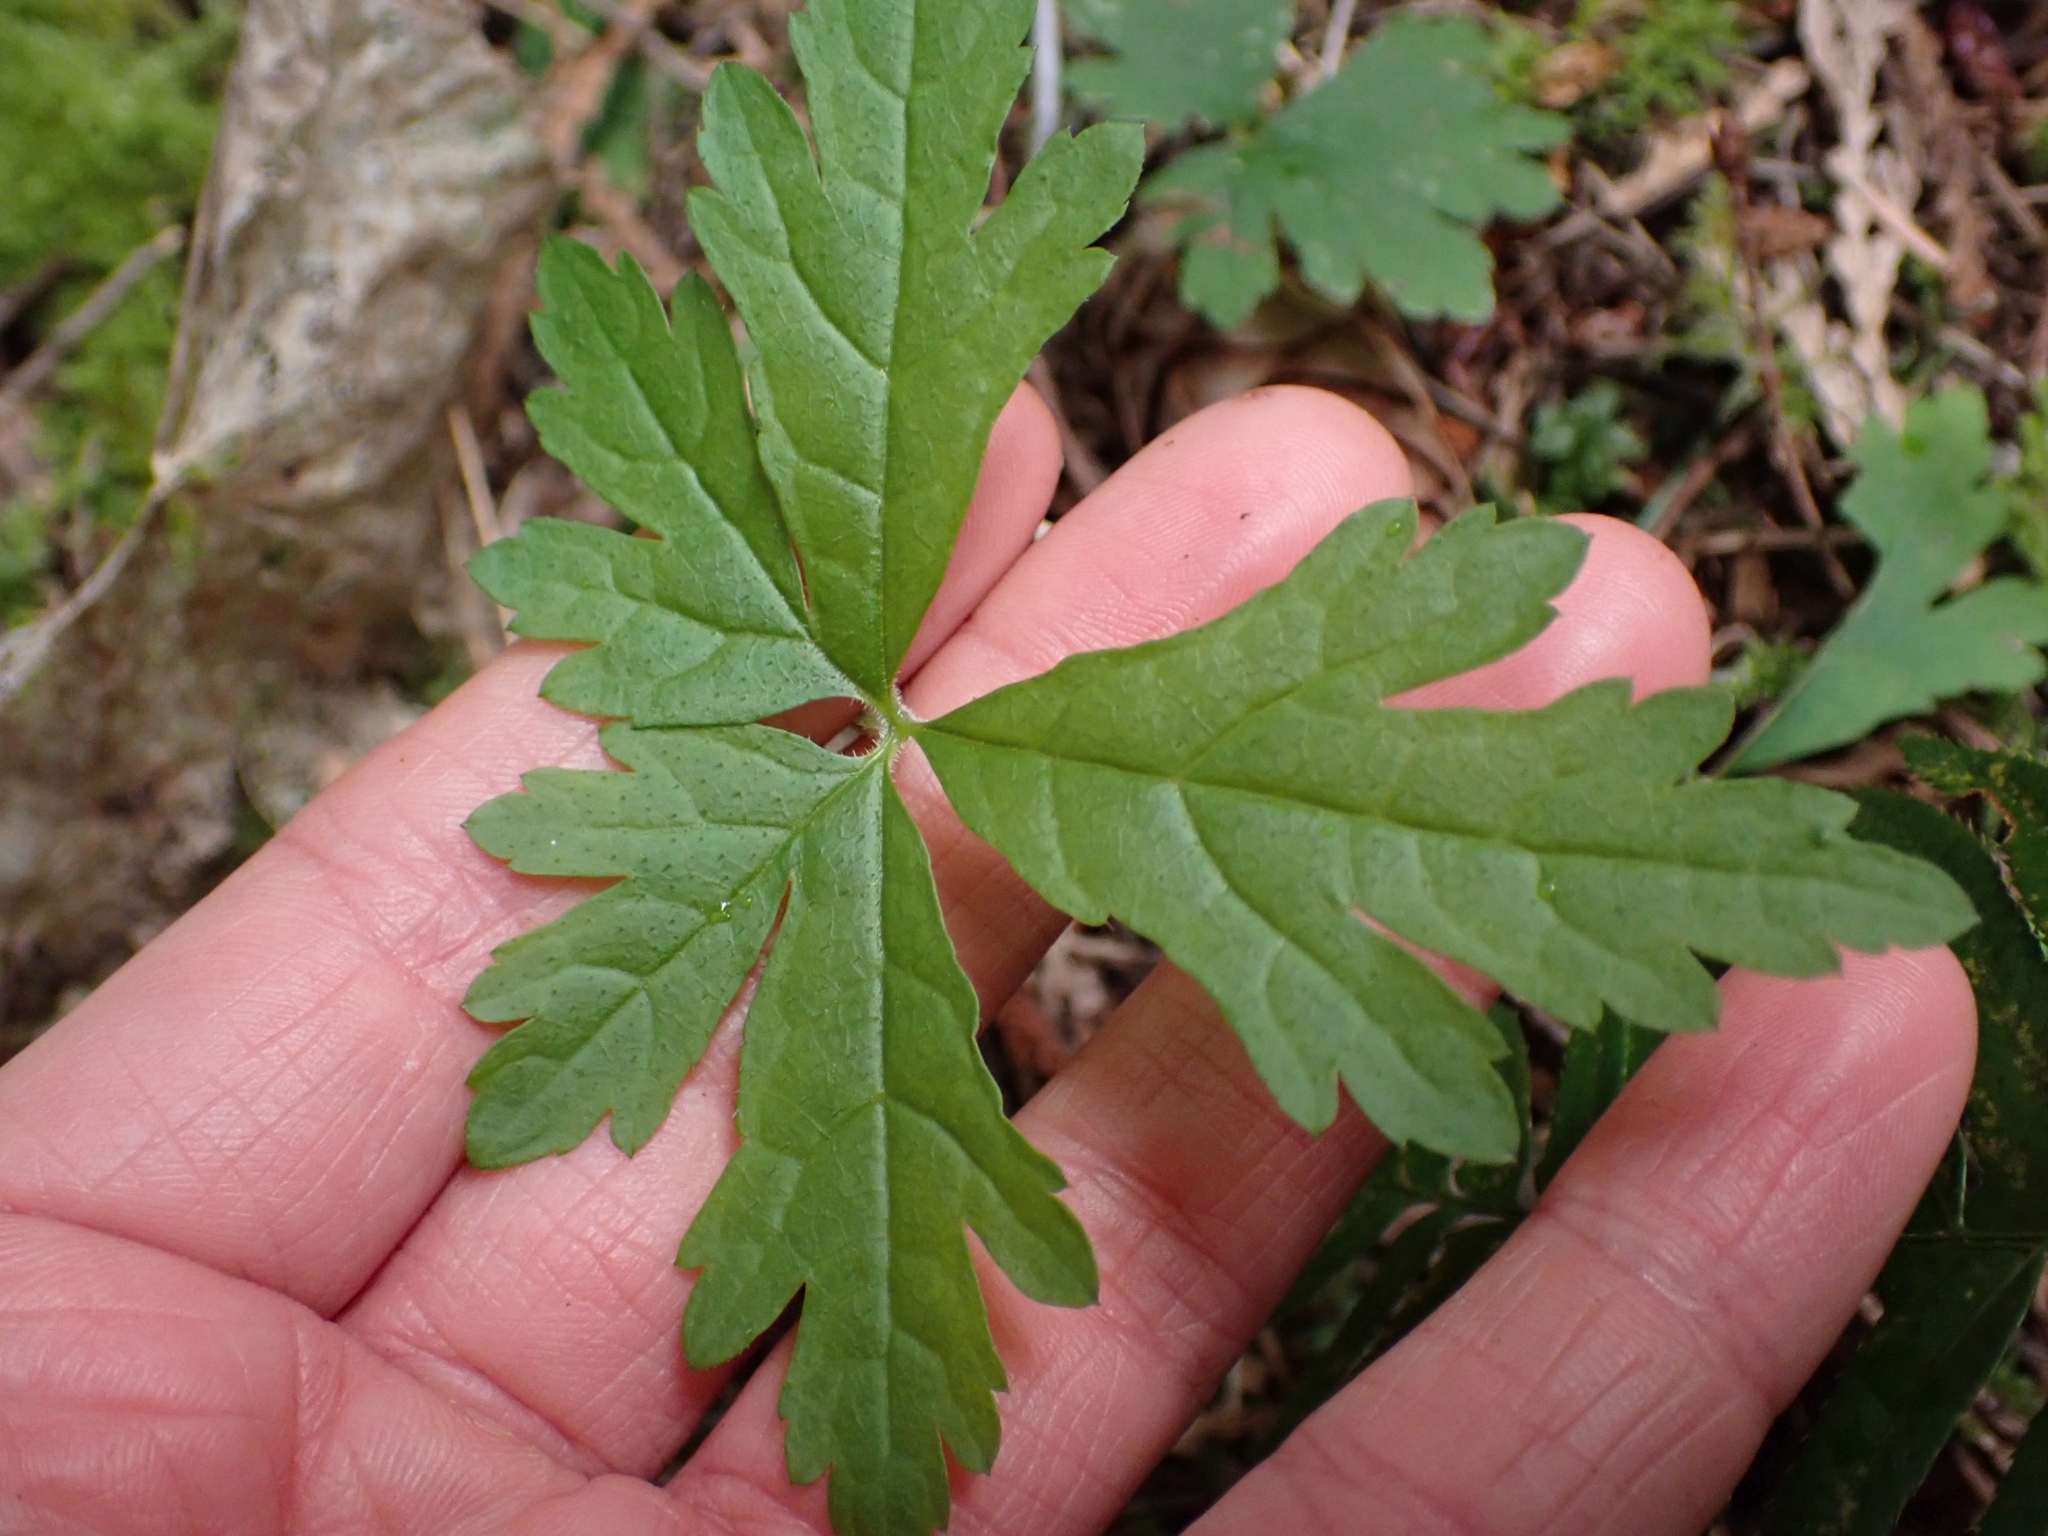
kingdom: Plantae
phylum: Tracheophyta
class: Magnoliopsida
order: Saxifragales
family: Saxifragaceae
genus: Tiarella
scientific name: Tiarella trifoliata
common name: Sugar-scoop
